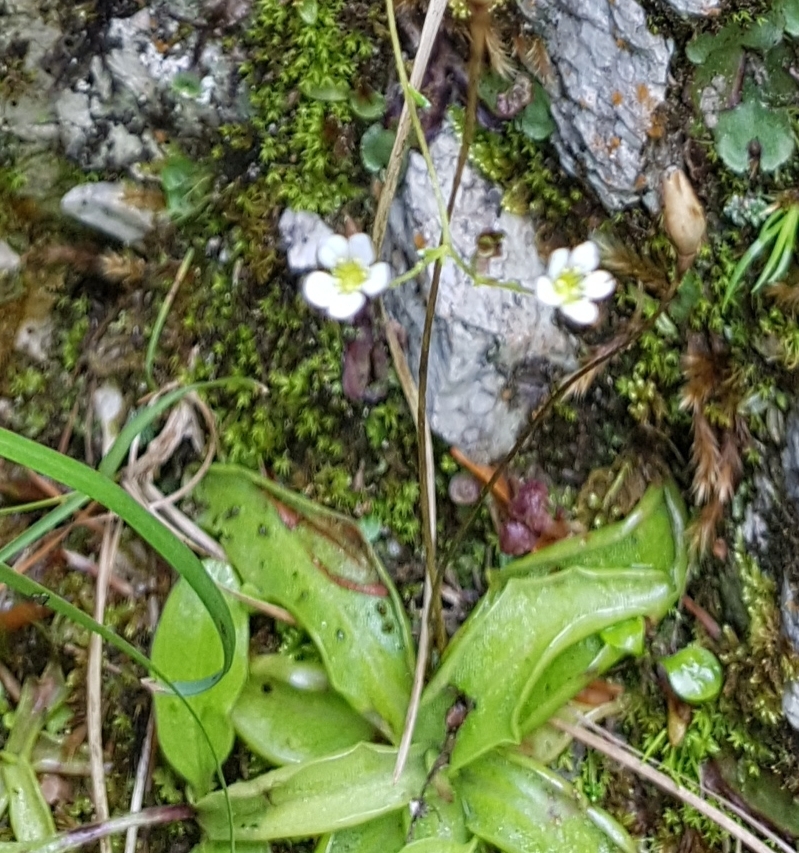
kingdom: Plantae
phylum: Tracheophyta
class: Magnoliopsida
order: Lamiales
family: Lentibulariaceae
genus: Pinguicula
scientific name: Pinguicula alpina
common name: Alpine butterwort
